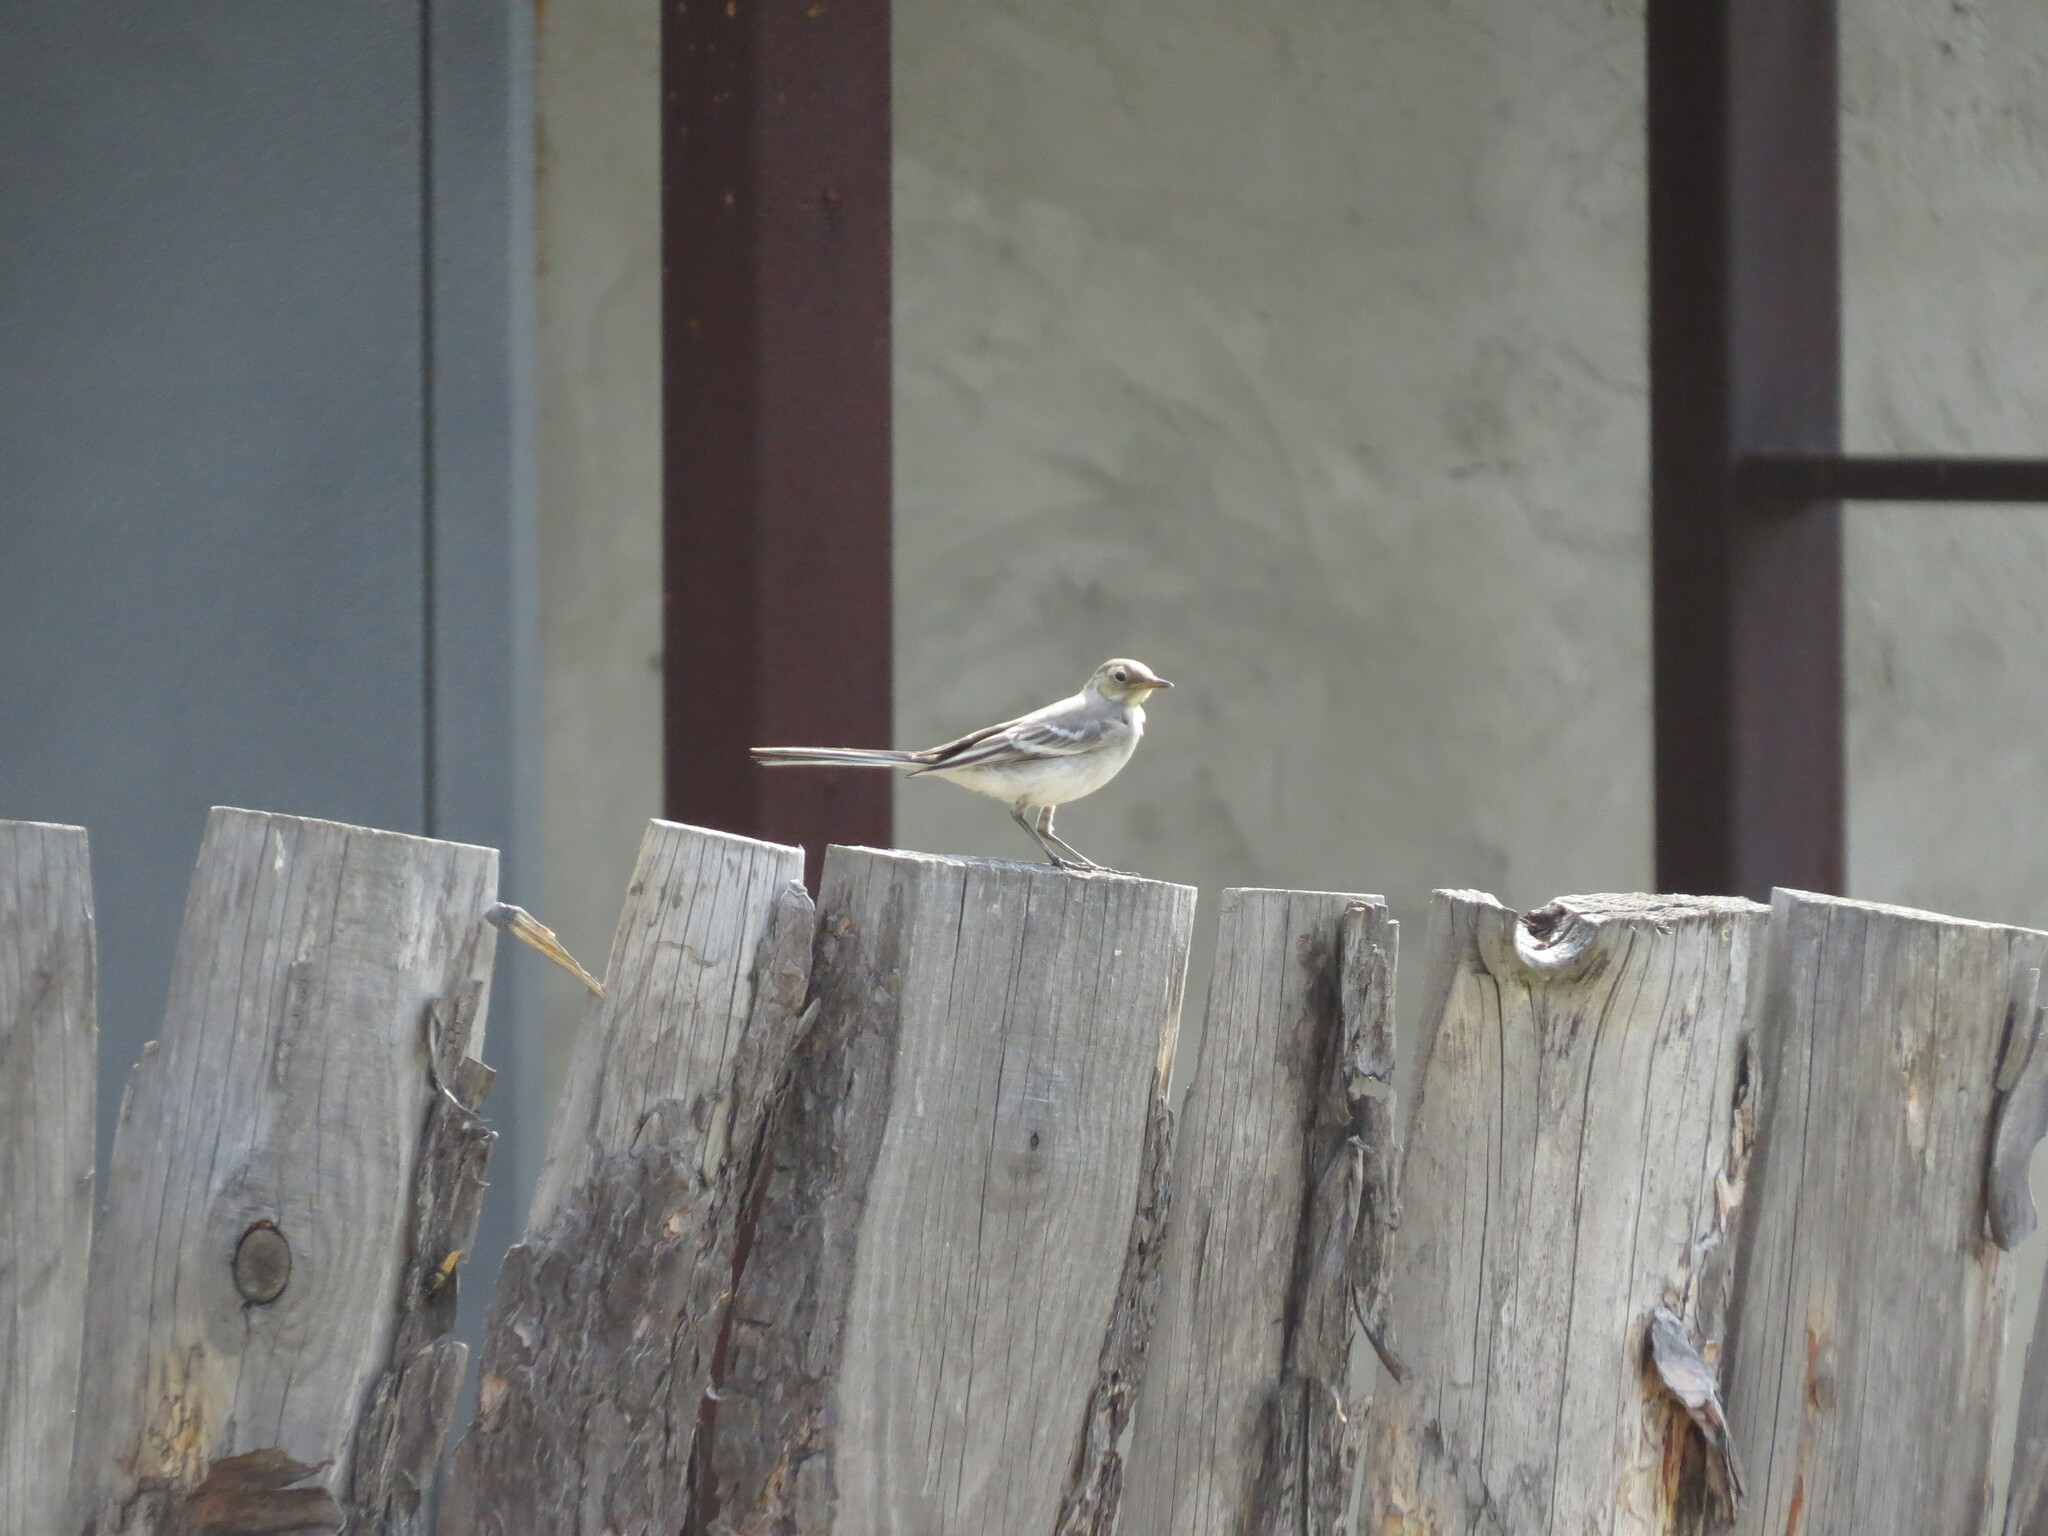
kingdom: Animalia
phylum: Chordata
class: Aves
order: Passeriformes
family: Motacillidae
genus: Motacilla
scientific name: Motacilla alba
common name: White wagtail
